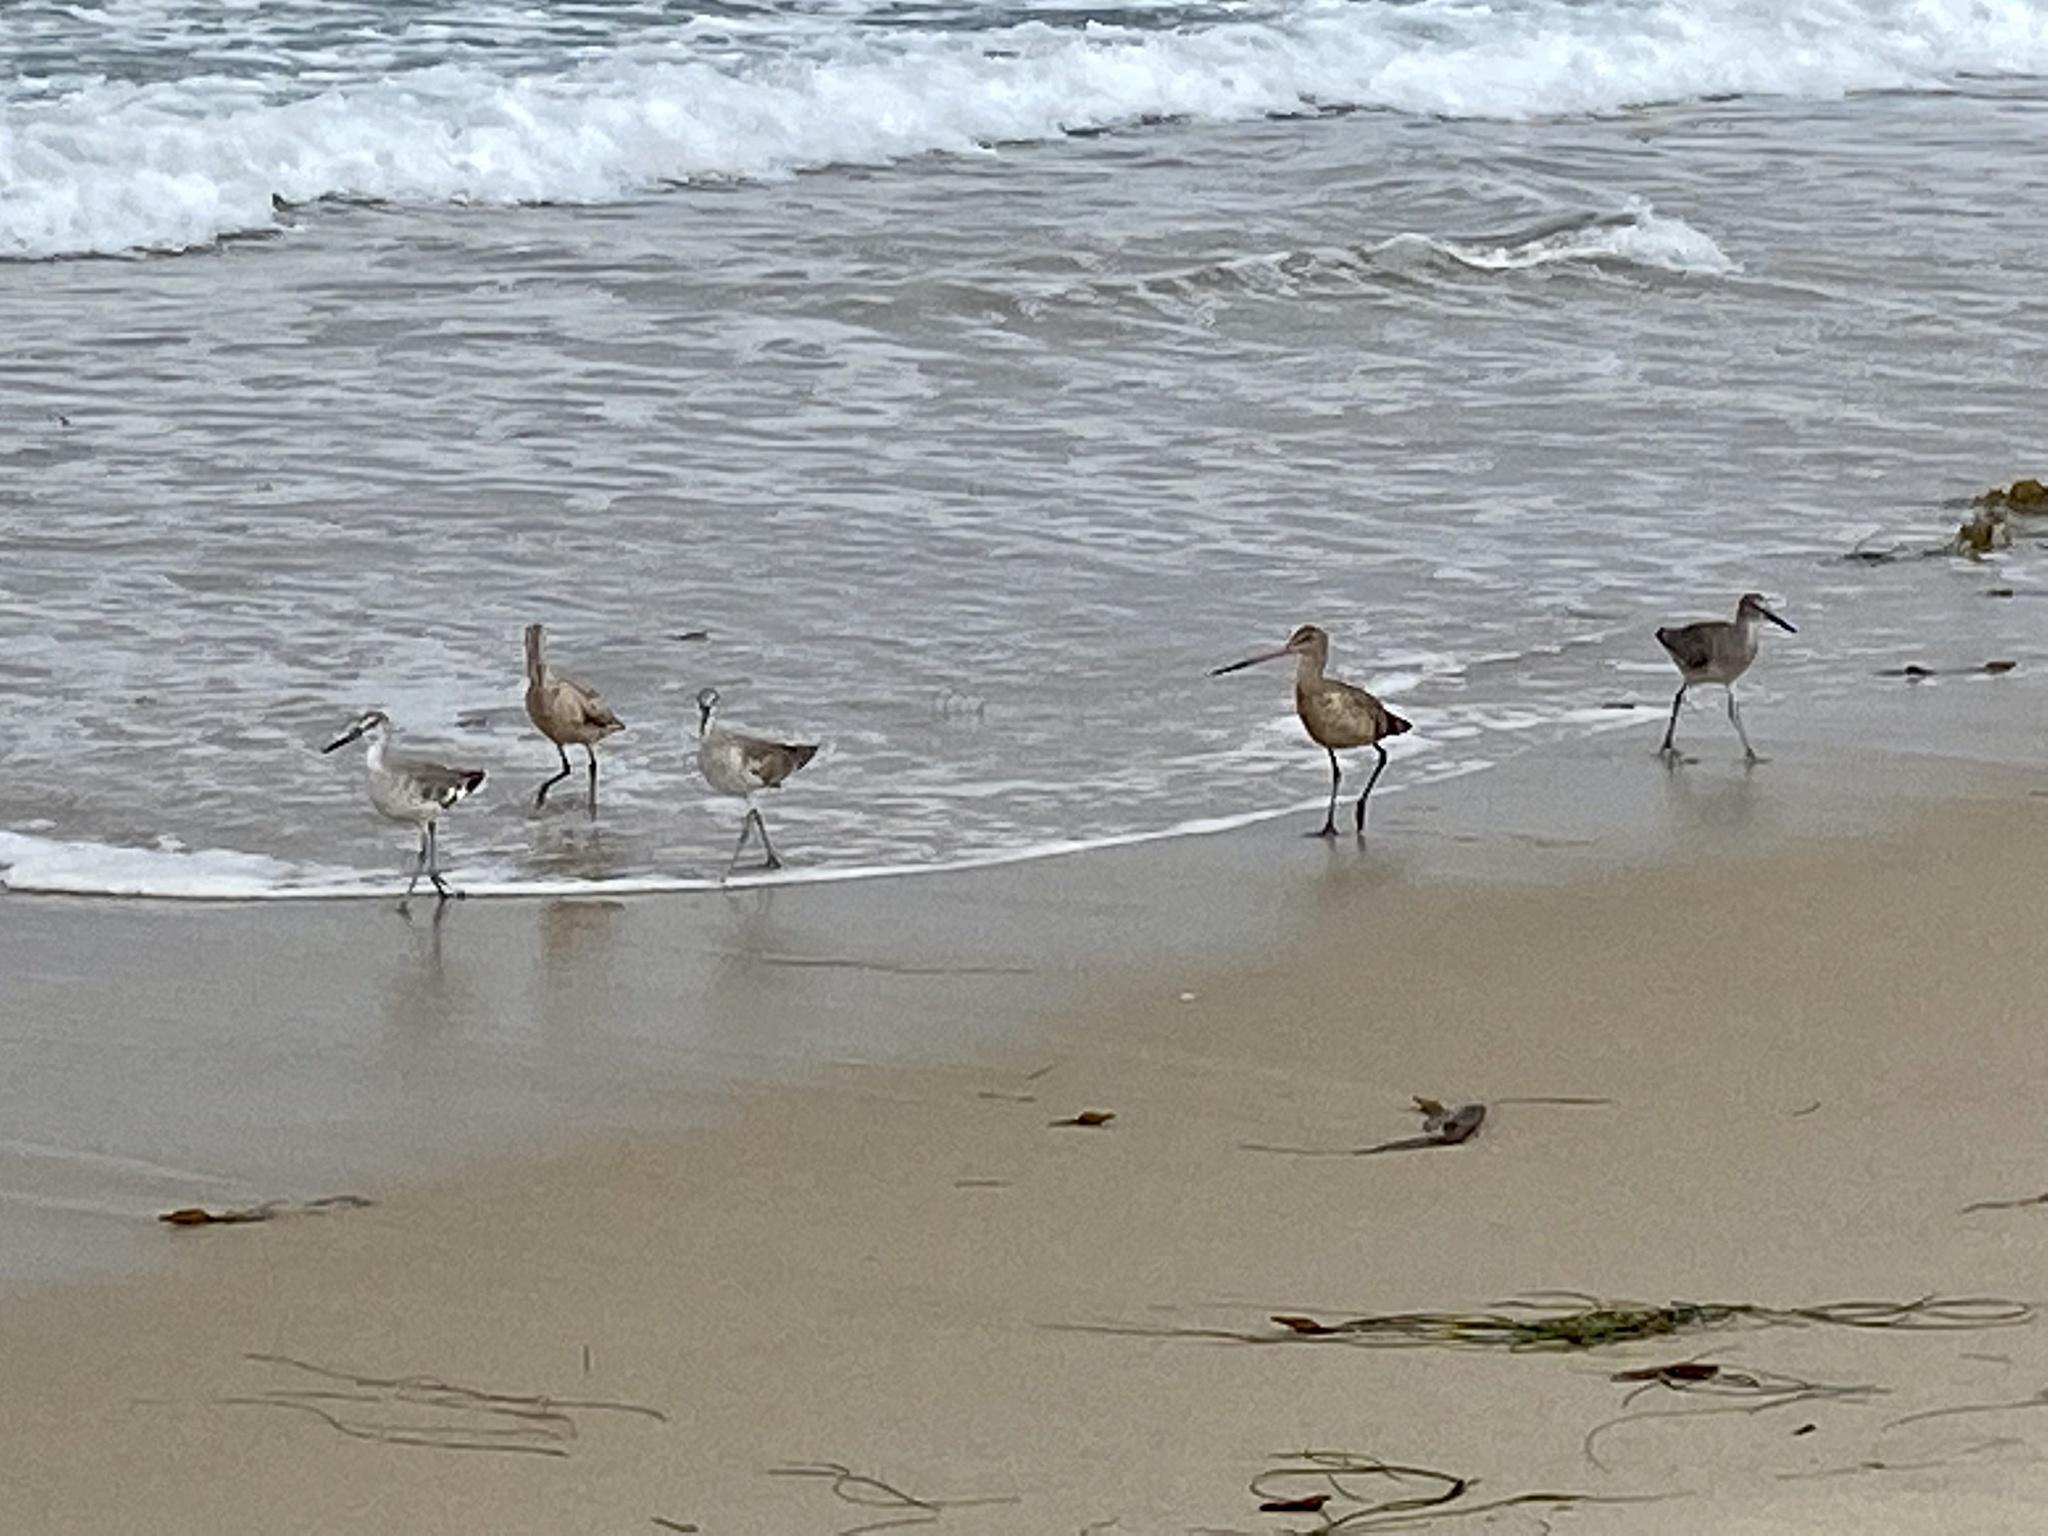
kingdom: Animalia
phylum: Chordata
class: Aves
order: Charadriiformes
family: Scolopacidae
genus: Limosa
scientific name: Limosa fedoa
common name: Marbled godwit
